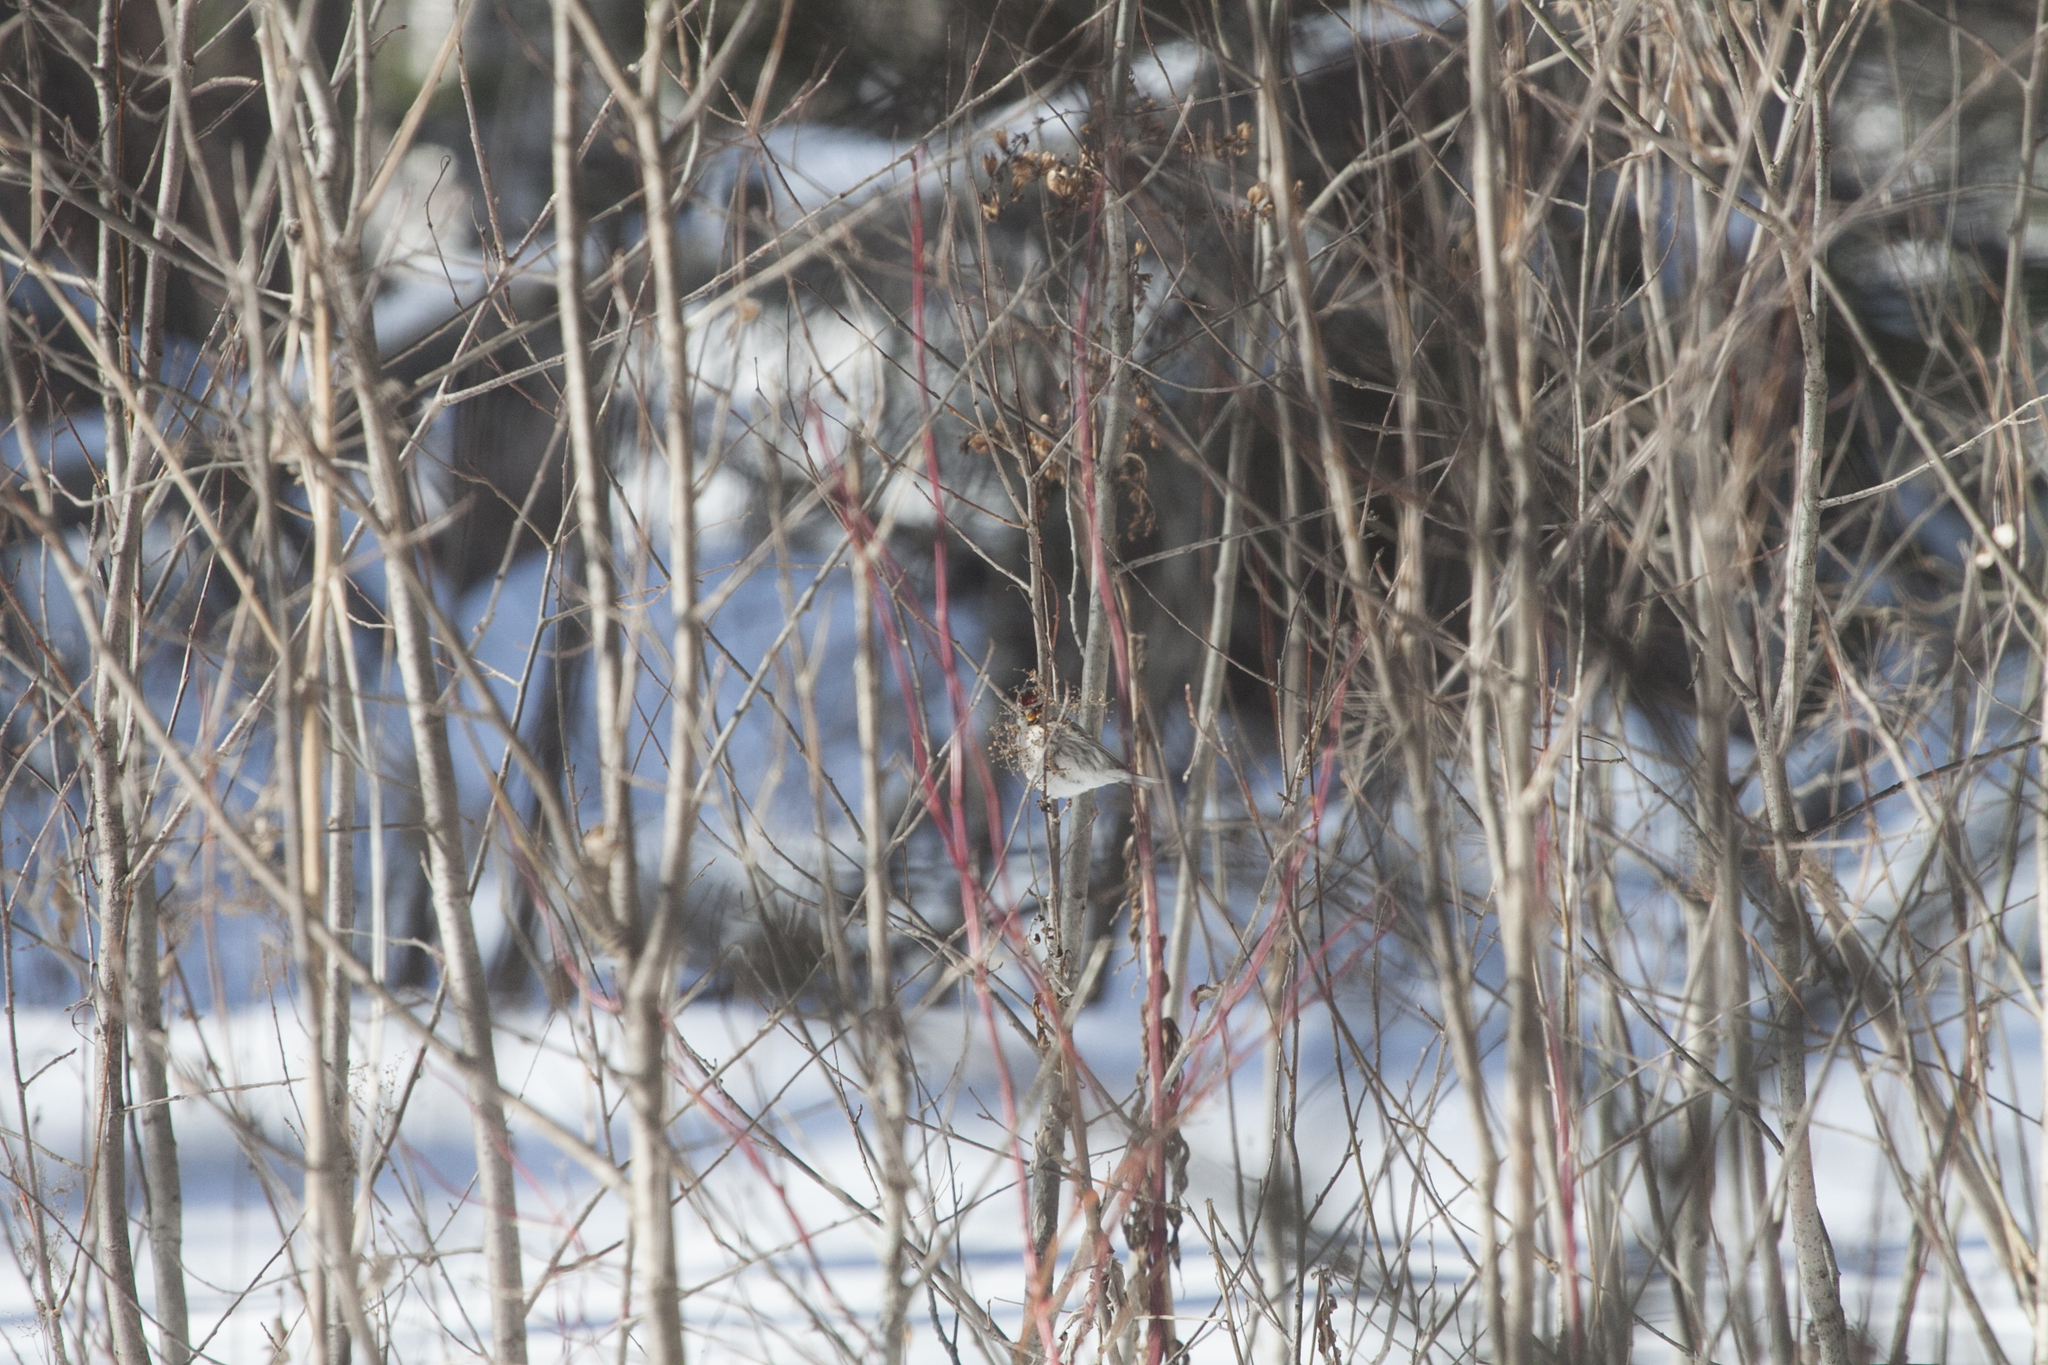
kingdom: Animalia
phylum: Chordata
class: Aves
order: Passeriformes
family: Fringillidae
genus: Acanthis
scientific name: Acanthis flammea
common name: Common redpoll
